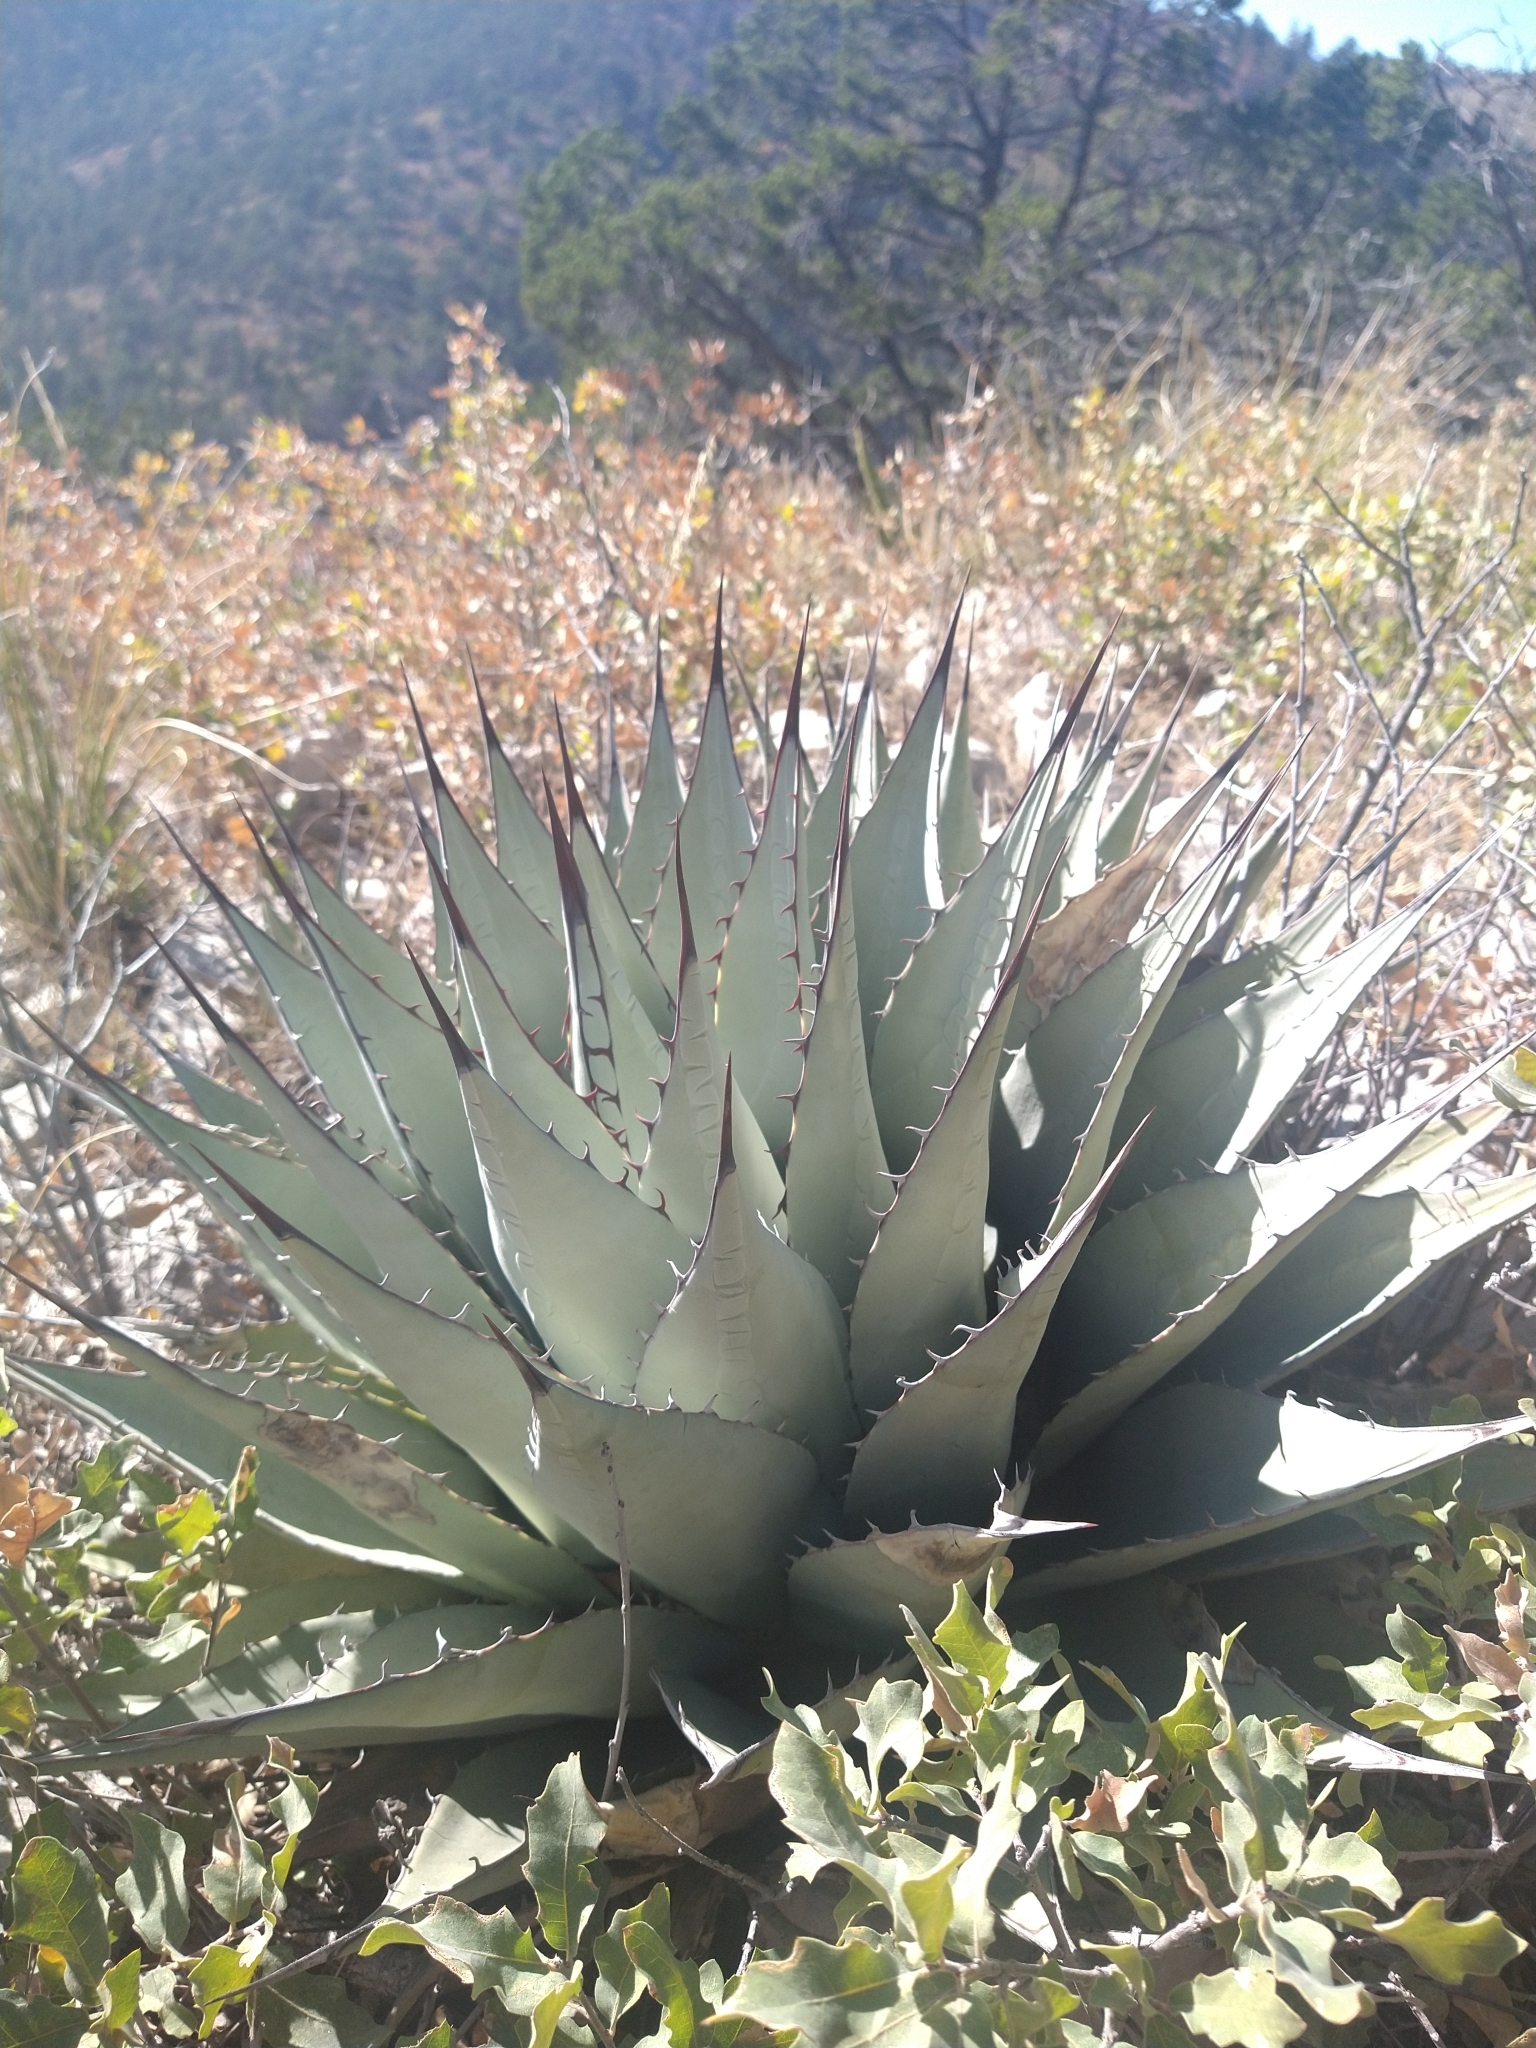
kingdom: Plantae
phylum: Tracheophyta
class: Liliopsida
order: Asparagales
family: Asparagaceae
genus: Agave
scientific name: Agave parryi
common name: Parry's agave
